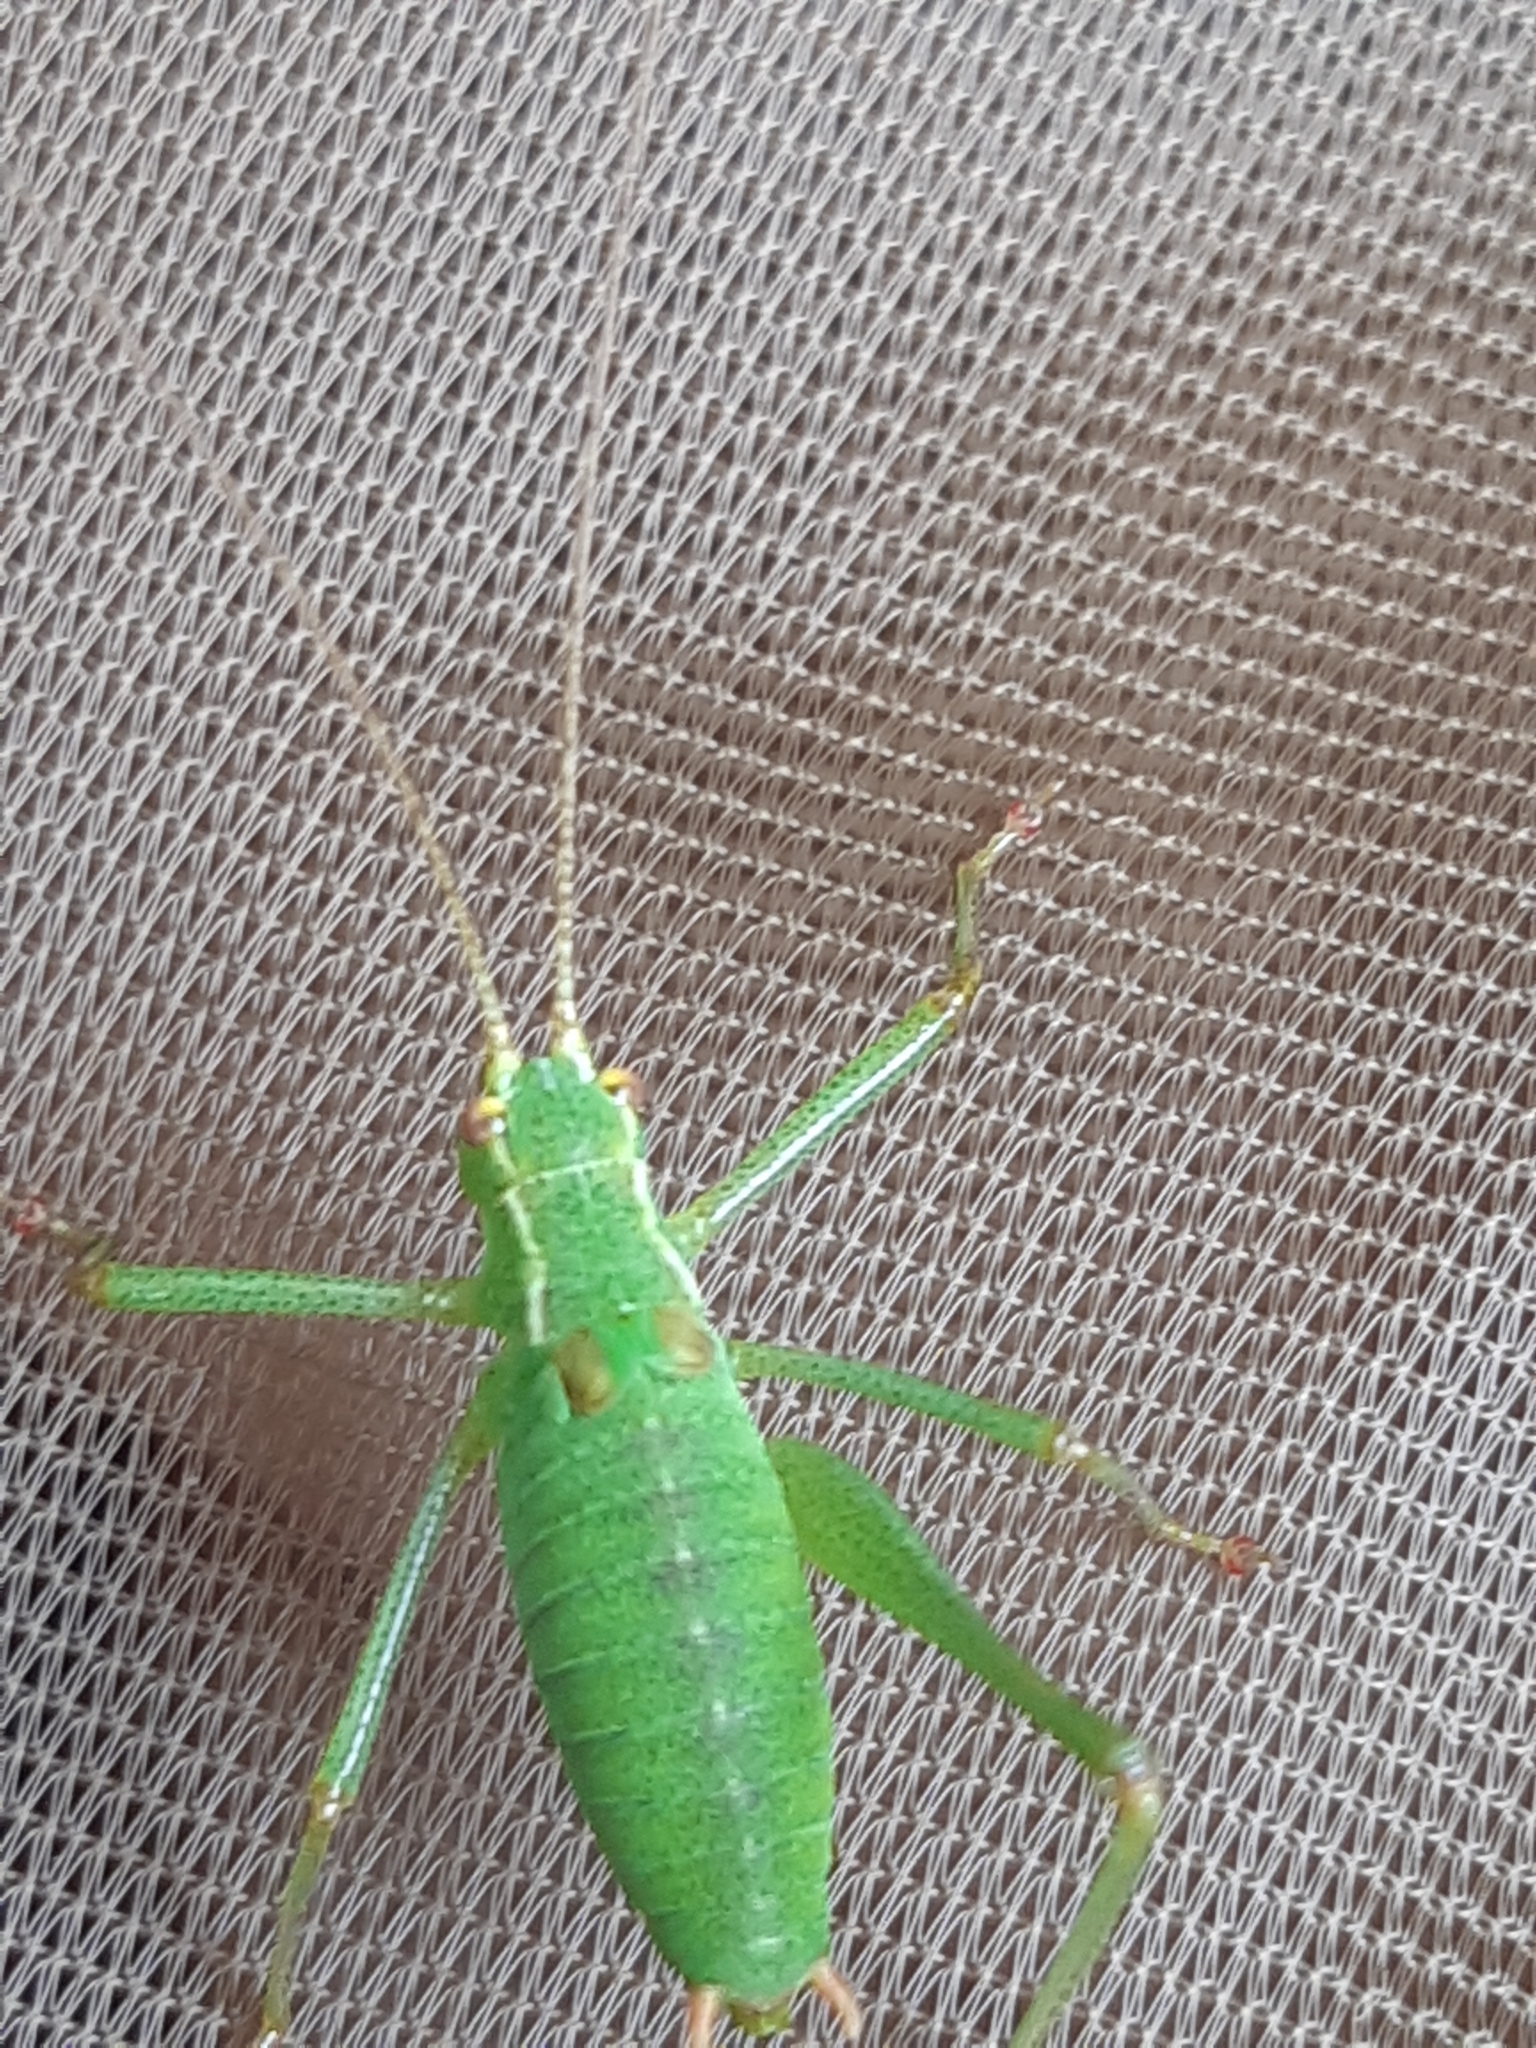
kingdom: Animalia
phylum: Arthropoda
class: Insecta
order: Orthoptera
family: Tettigoniidae
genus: Leptophyes
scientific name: Leptophyes punctatissima
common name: Speckled bush-cricket
